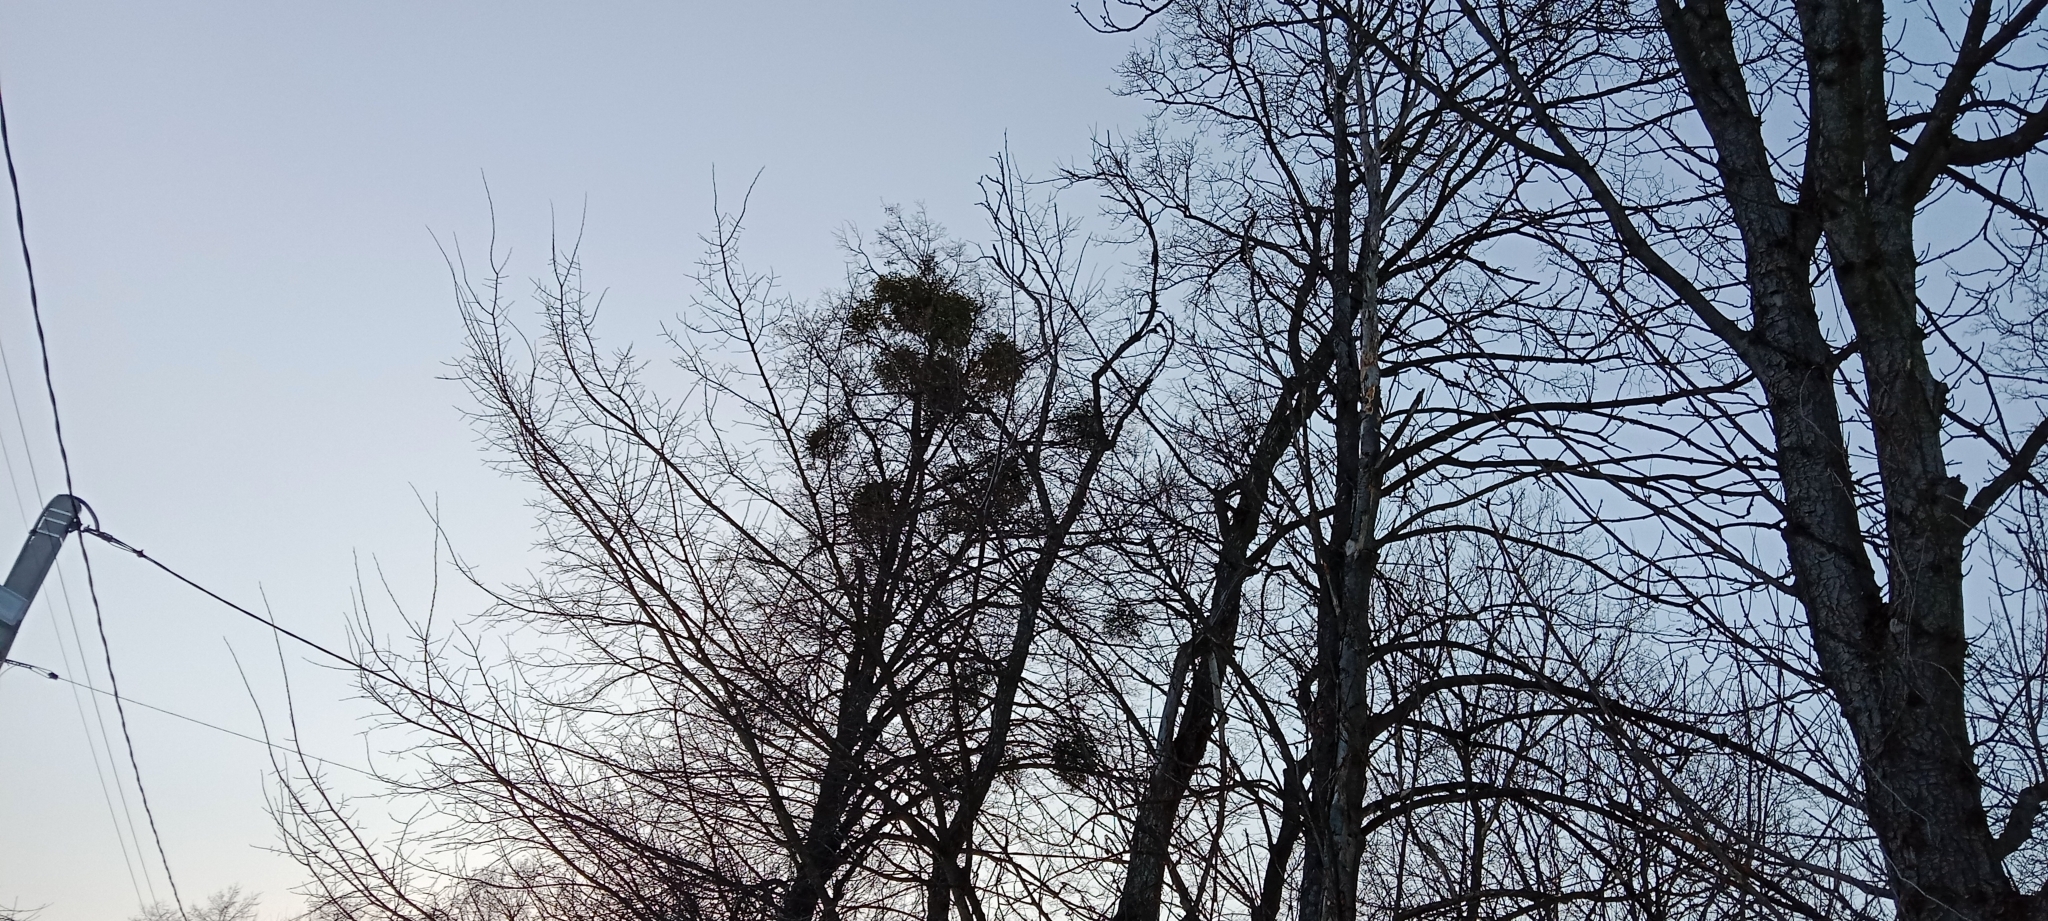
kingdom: Plantae
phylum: Tracheophyta
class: Magnoliopsida
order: Santalales
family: Viscaceae
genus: Viscum
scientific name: Viscum album
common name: Mistletoe
